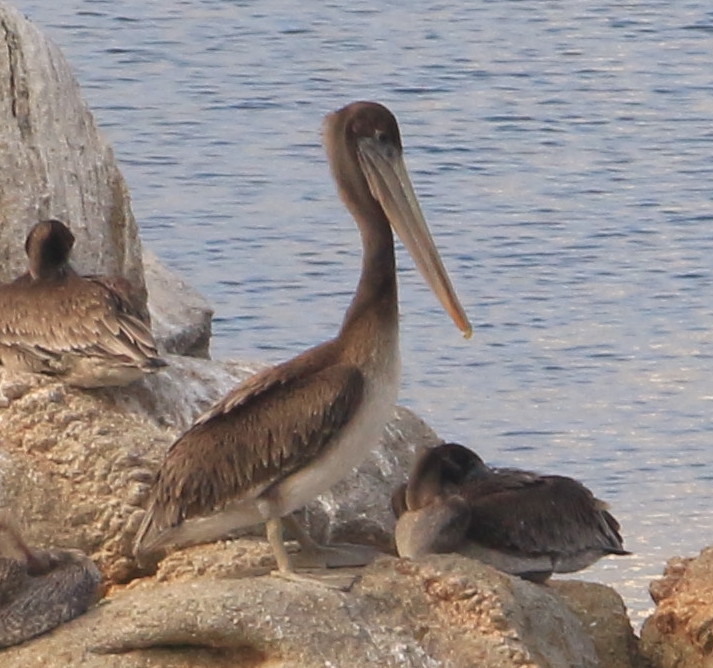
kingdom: Animalia
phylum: Chordata
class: Aves
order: Pelecaniformes
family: Pelecanidae
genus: Pelecanus
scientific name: Pelecanus occidentalis
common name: Brown pelican
